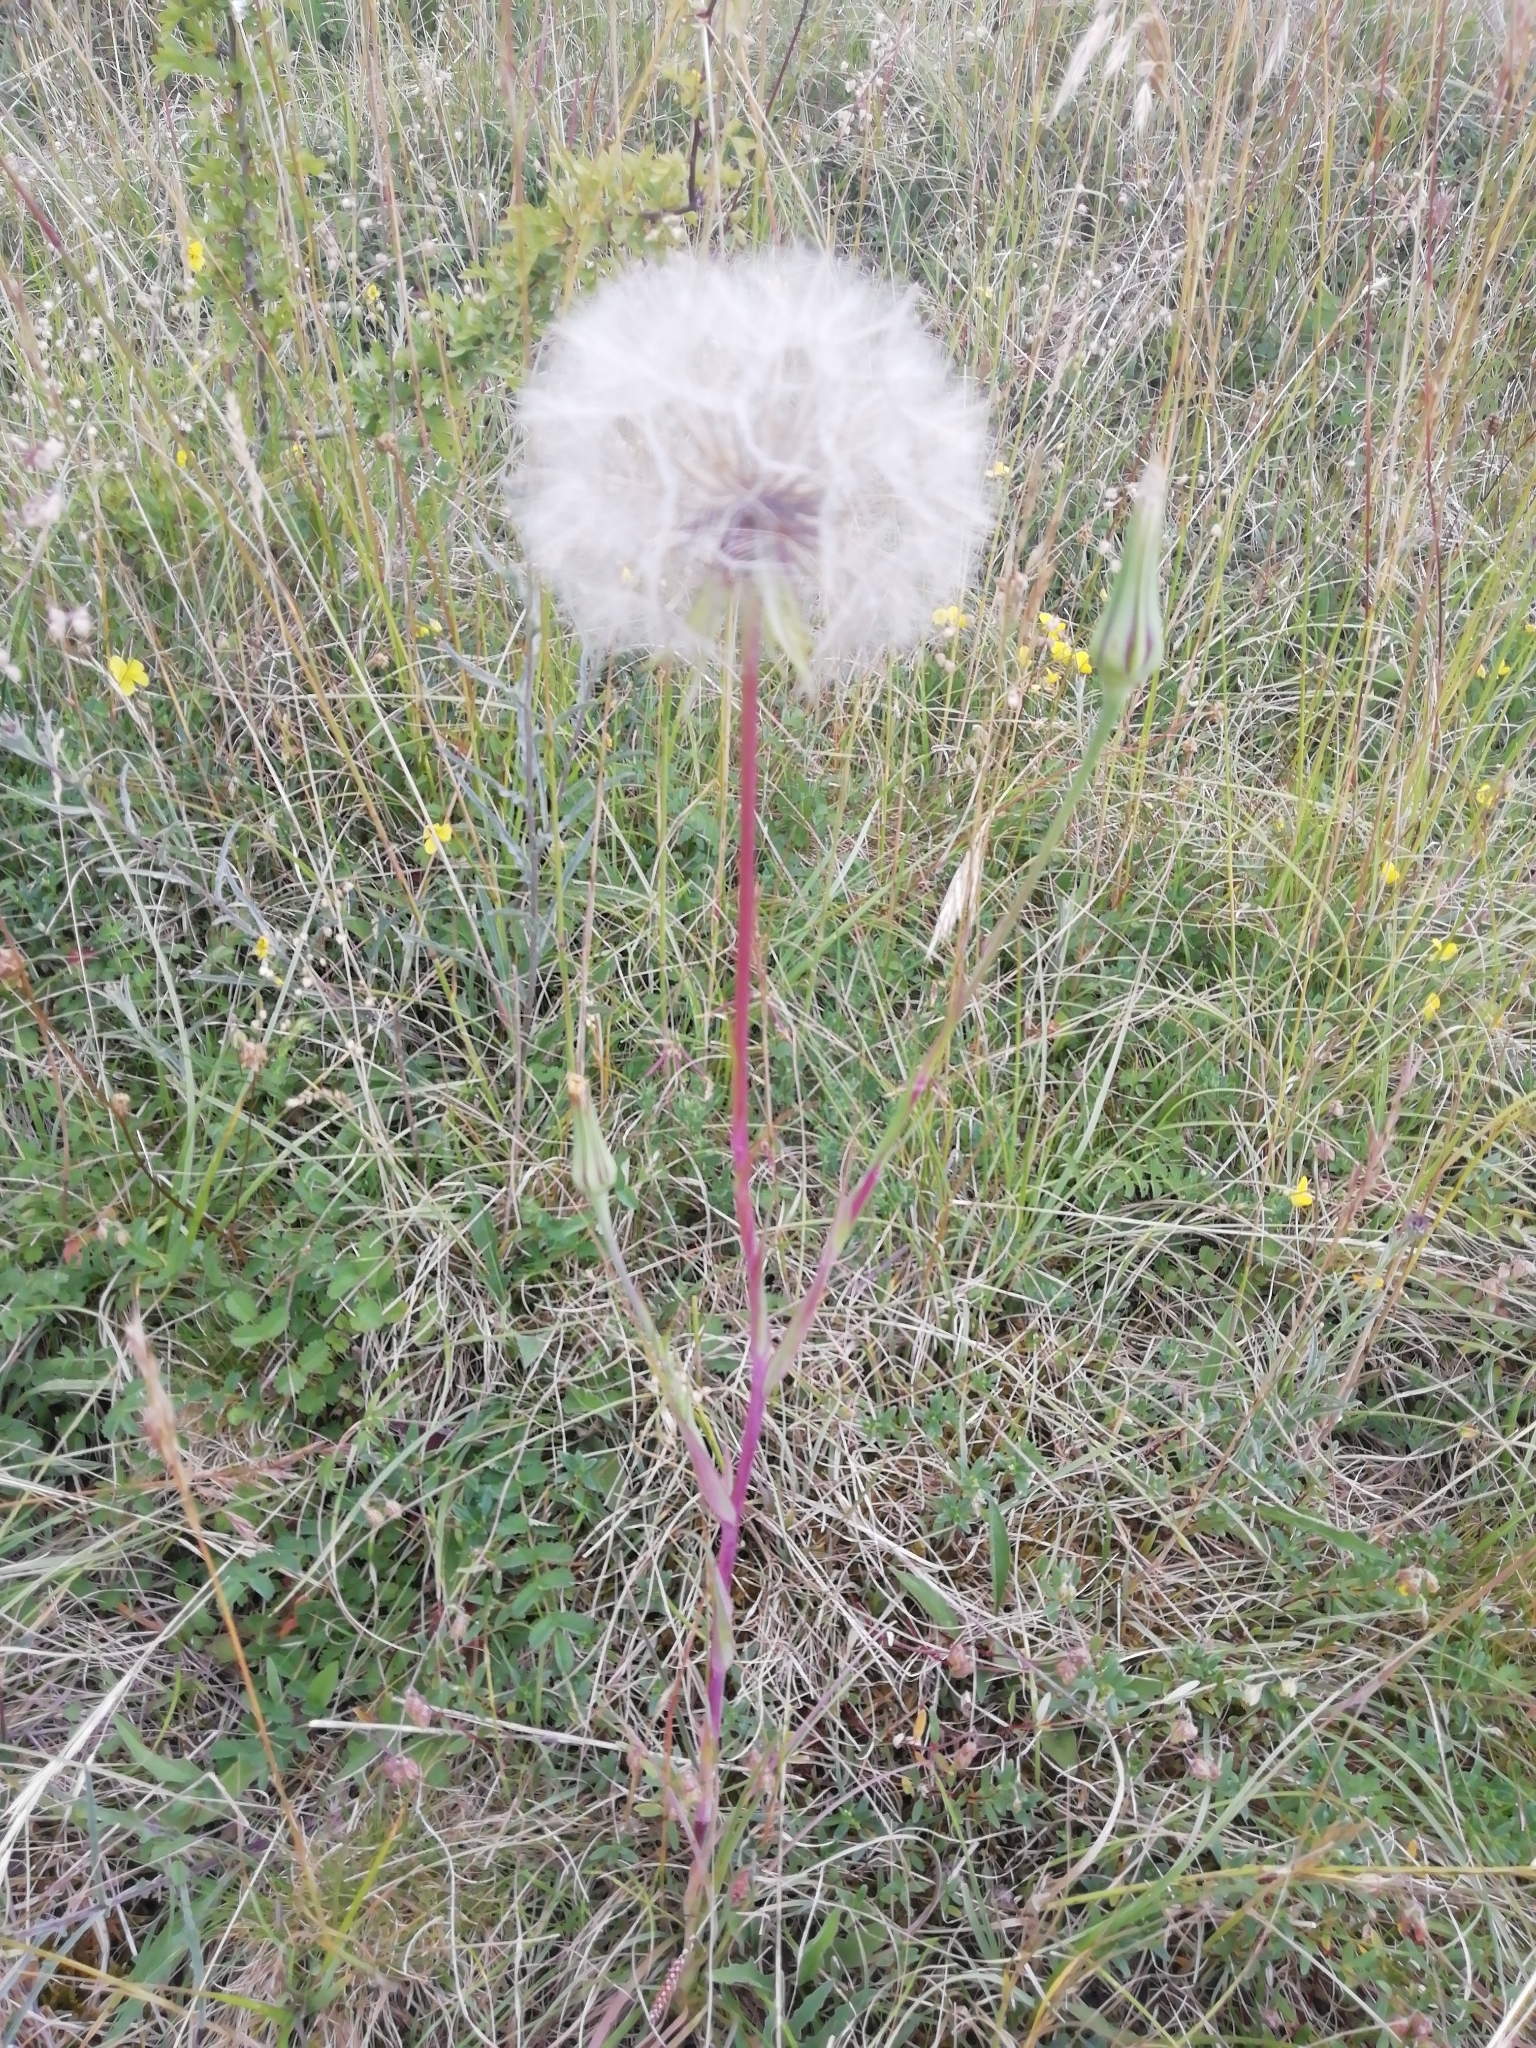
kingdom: Plantae
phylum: Tracheophyta
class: Magnoliopsida
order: Asterales
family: Asteraceae
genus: Tragopogon
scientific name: Tragopogon pratensis
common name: Goat's-beard
